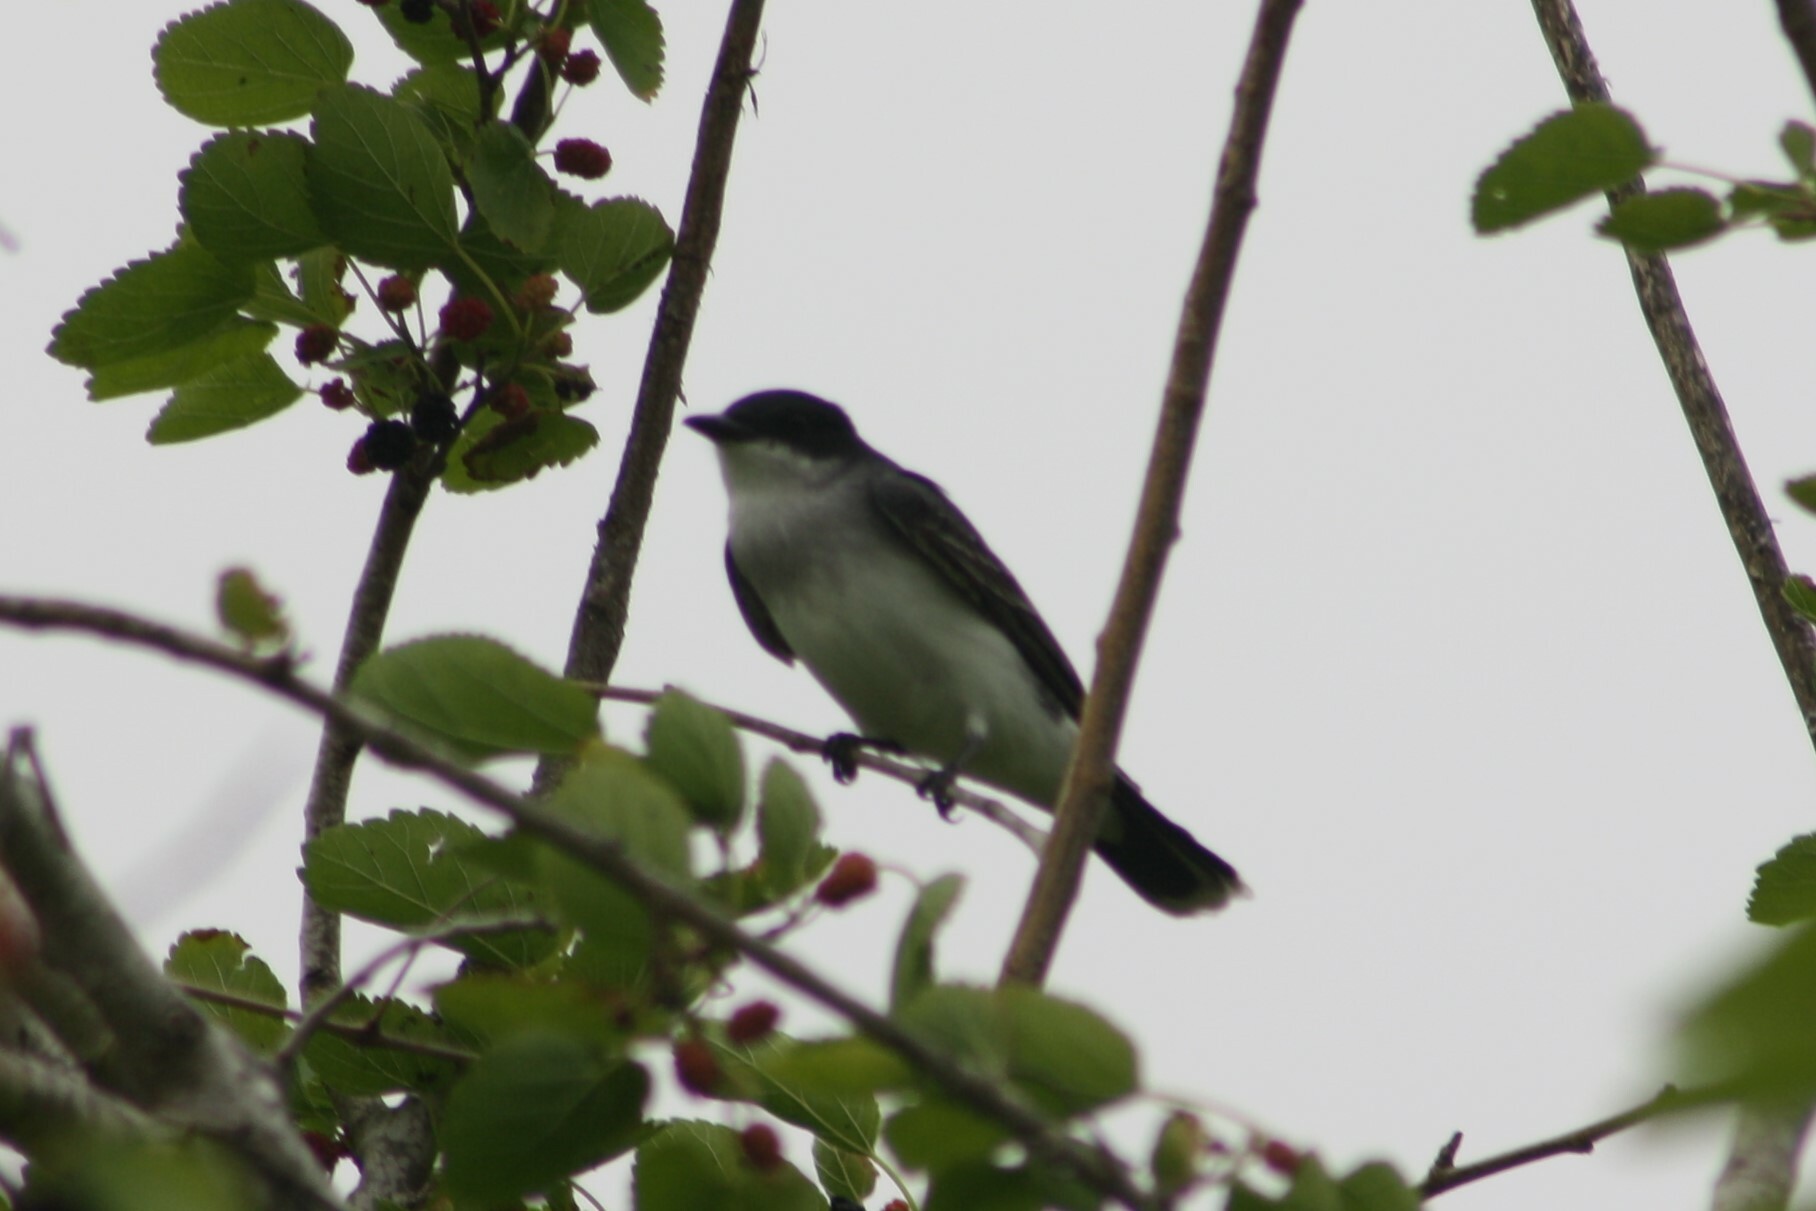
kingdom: Animalia
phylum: Chordata
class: Aves
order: Passeriformes
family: Tyrannidae
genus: Tyrannus
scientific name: Tyrannus tyrannus
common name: Eastern kingbird
